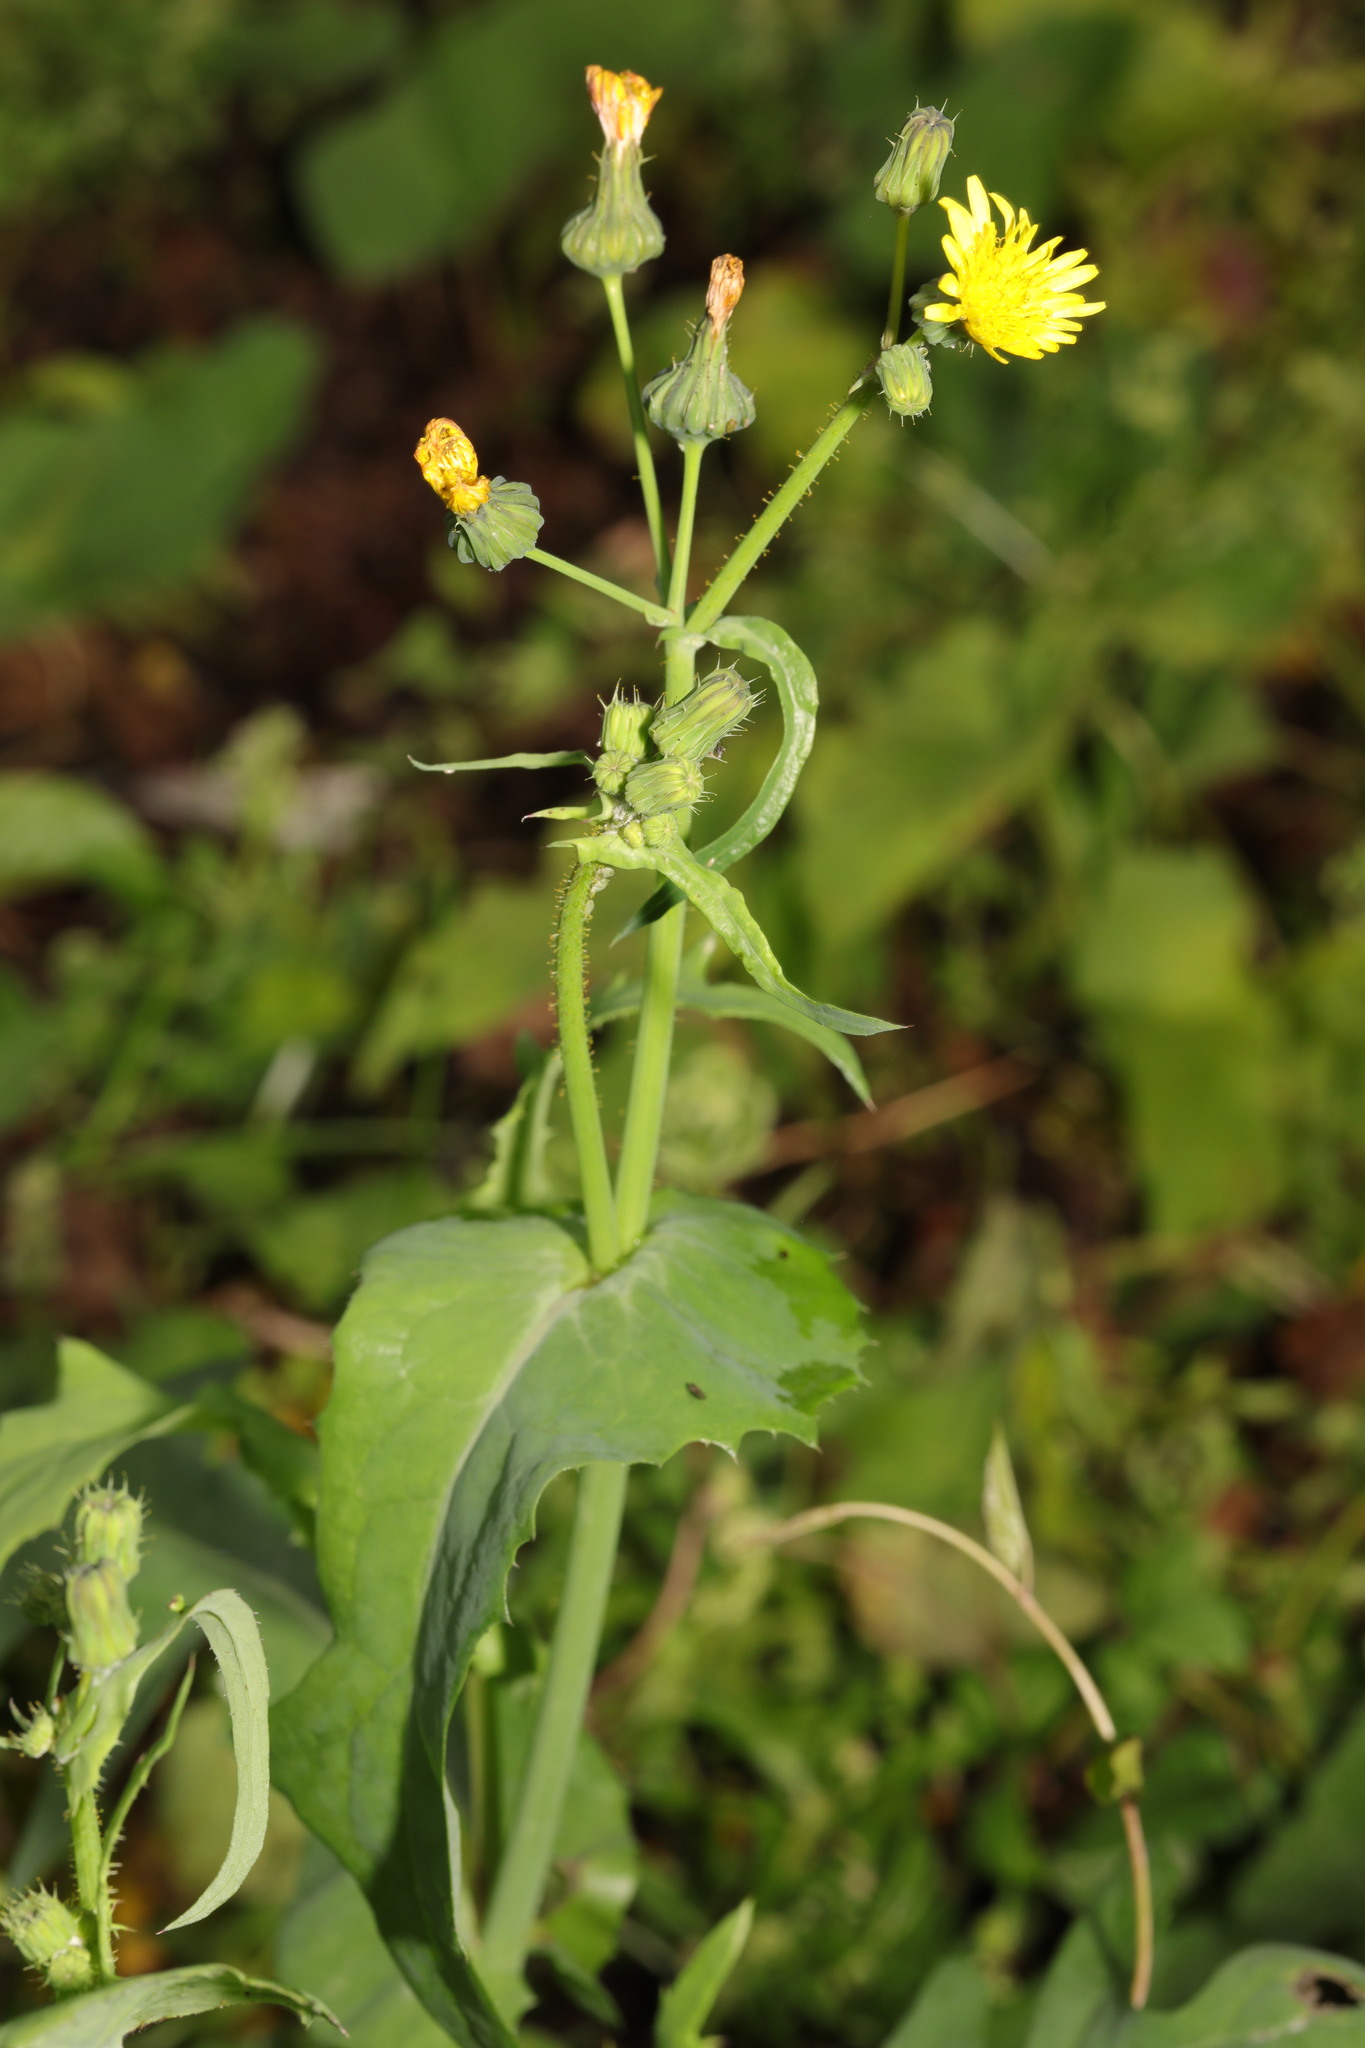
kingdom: Plantae
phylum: Tracheophyta
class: Magnoliopsida
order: Asterales
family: Asteraceae
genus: Sonchus
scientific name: Sonchus oleraceus
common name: Common sowthistle
